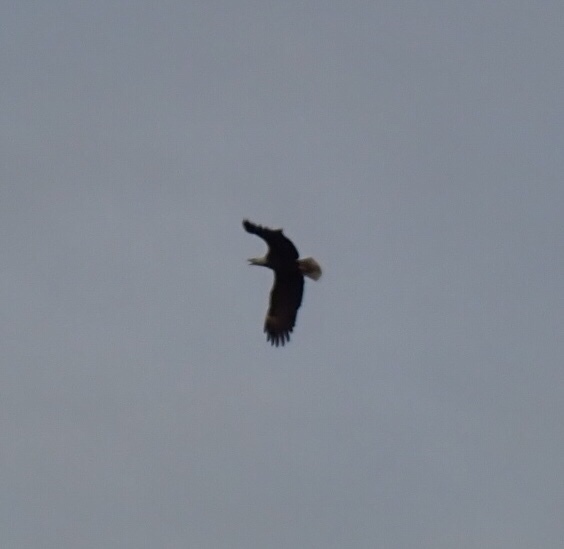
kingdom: Animalia
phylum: Chordata
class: Aves
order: Accipitriformes
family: Accipitridae
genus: Haliaeetus
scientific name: Haliaeetus leucocephalus
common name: Bald eagle
